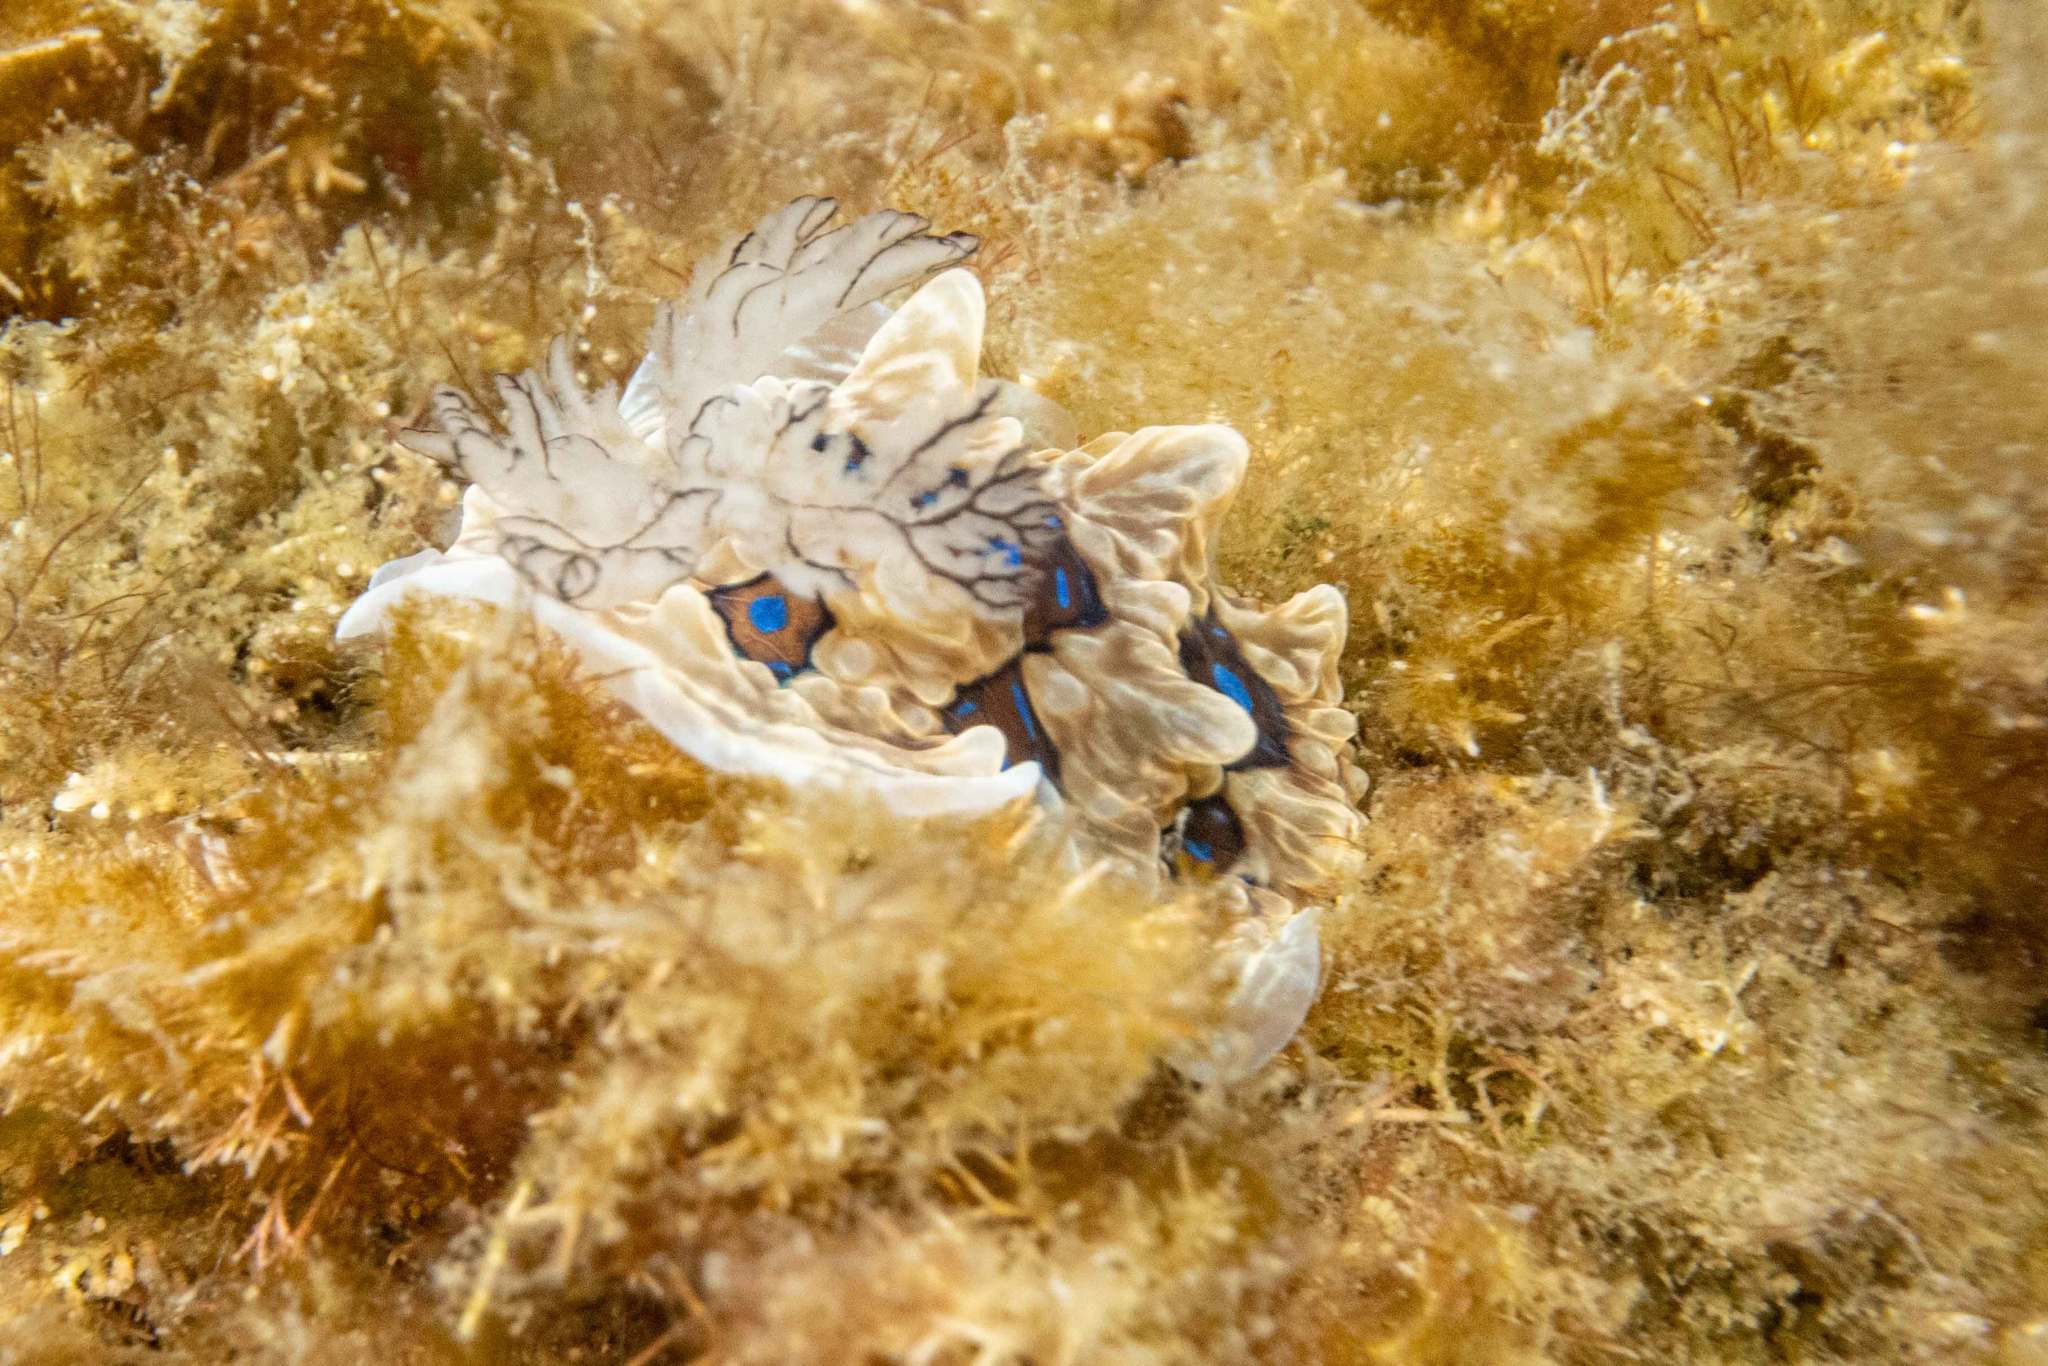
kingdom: Animalia
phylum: Mollusca
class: Gastropoda
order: Nudibranchia
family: Dendrodorididae
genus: Dendrodoris
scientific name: Dendrodoris krusensternii
